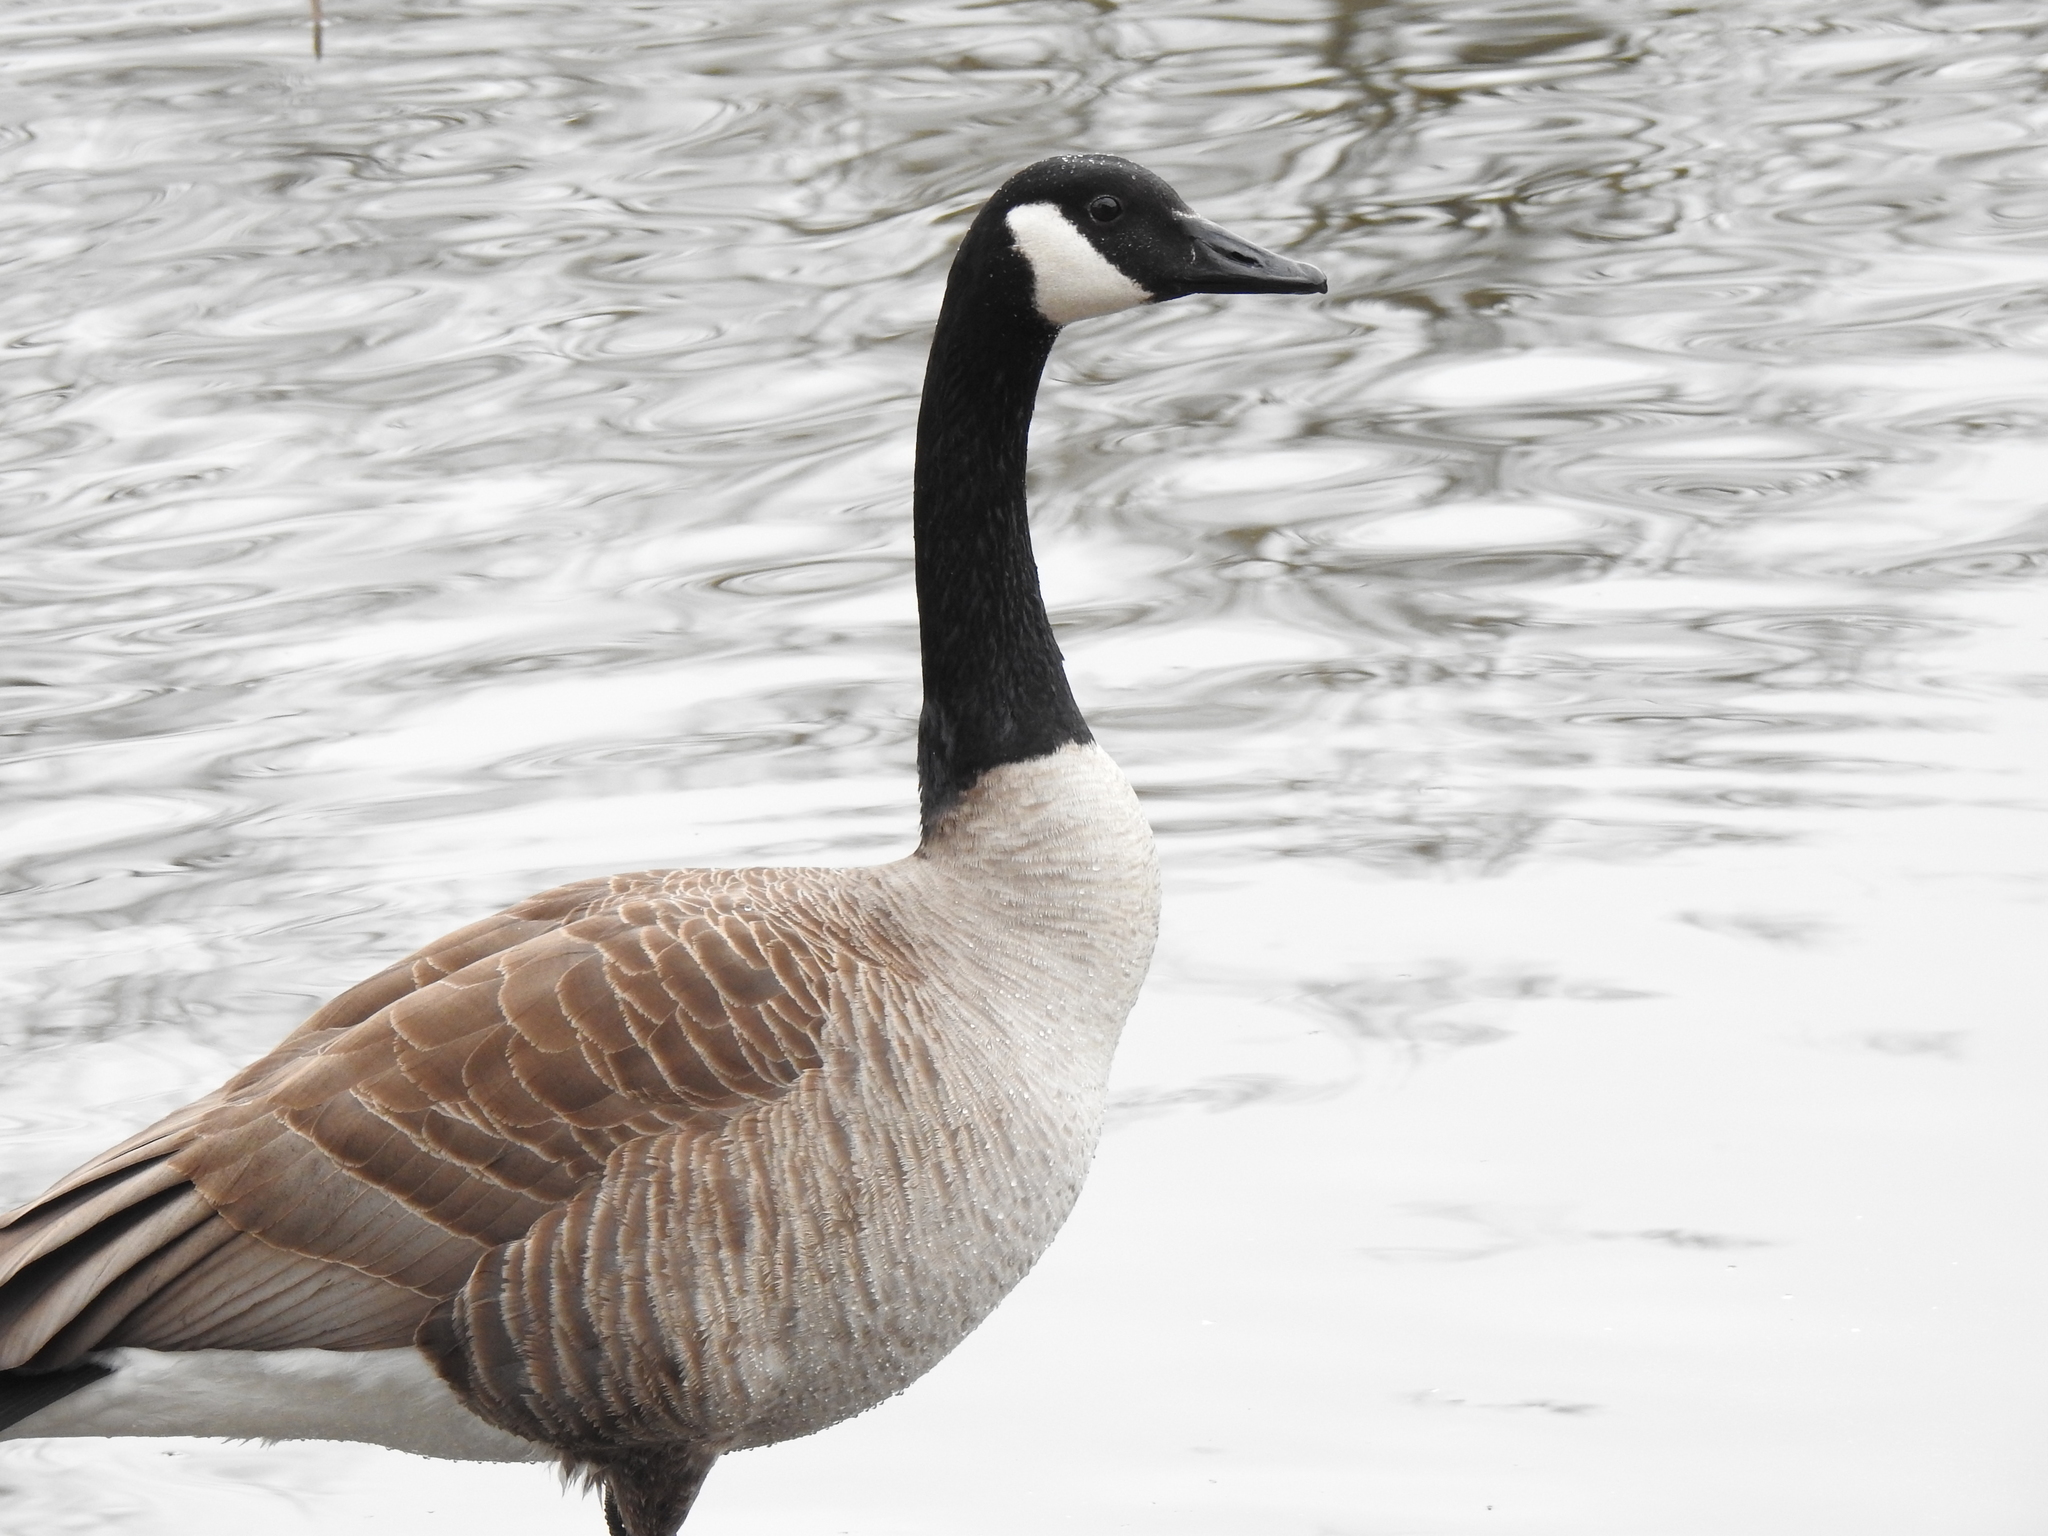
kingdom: Animalia
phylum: Chordata
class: Aves
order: Anseriformes
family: Anatidae
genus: Branta
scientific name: Branta canadensis
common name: Canada goose
